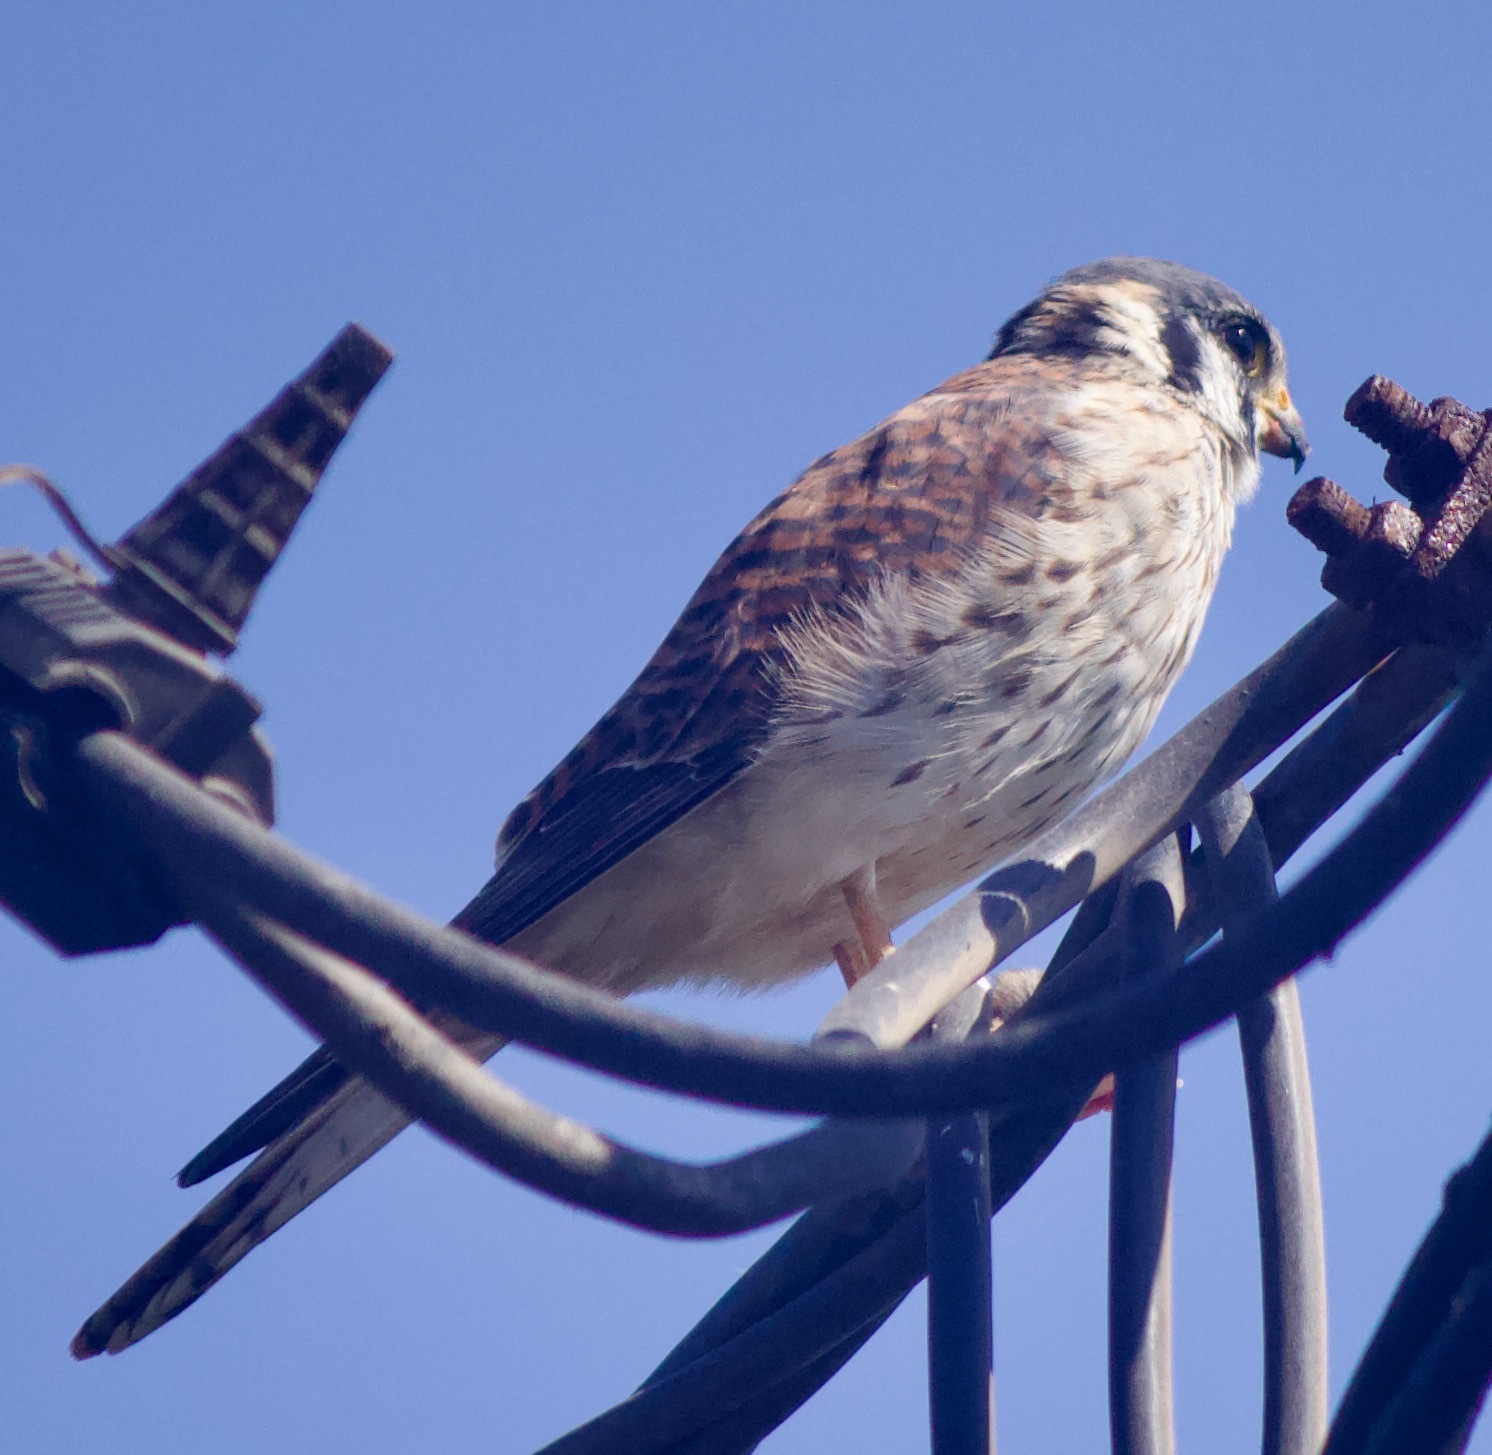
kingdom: Animalia
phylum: Chordata
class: Aves
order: Falconiformes
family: Falconidae
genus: Falco
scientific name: Falco sparverius
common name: American kestrel
